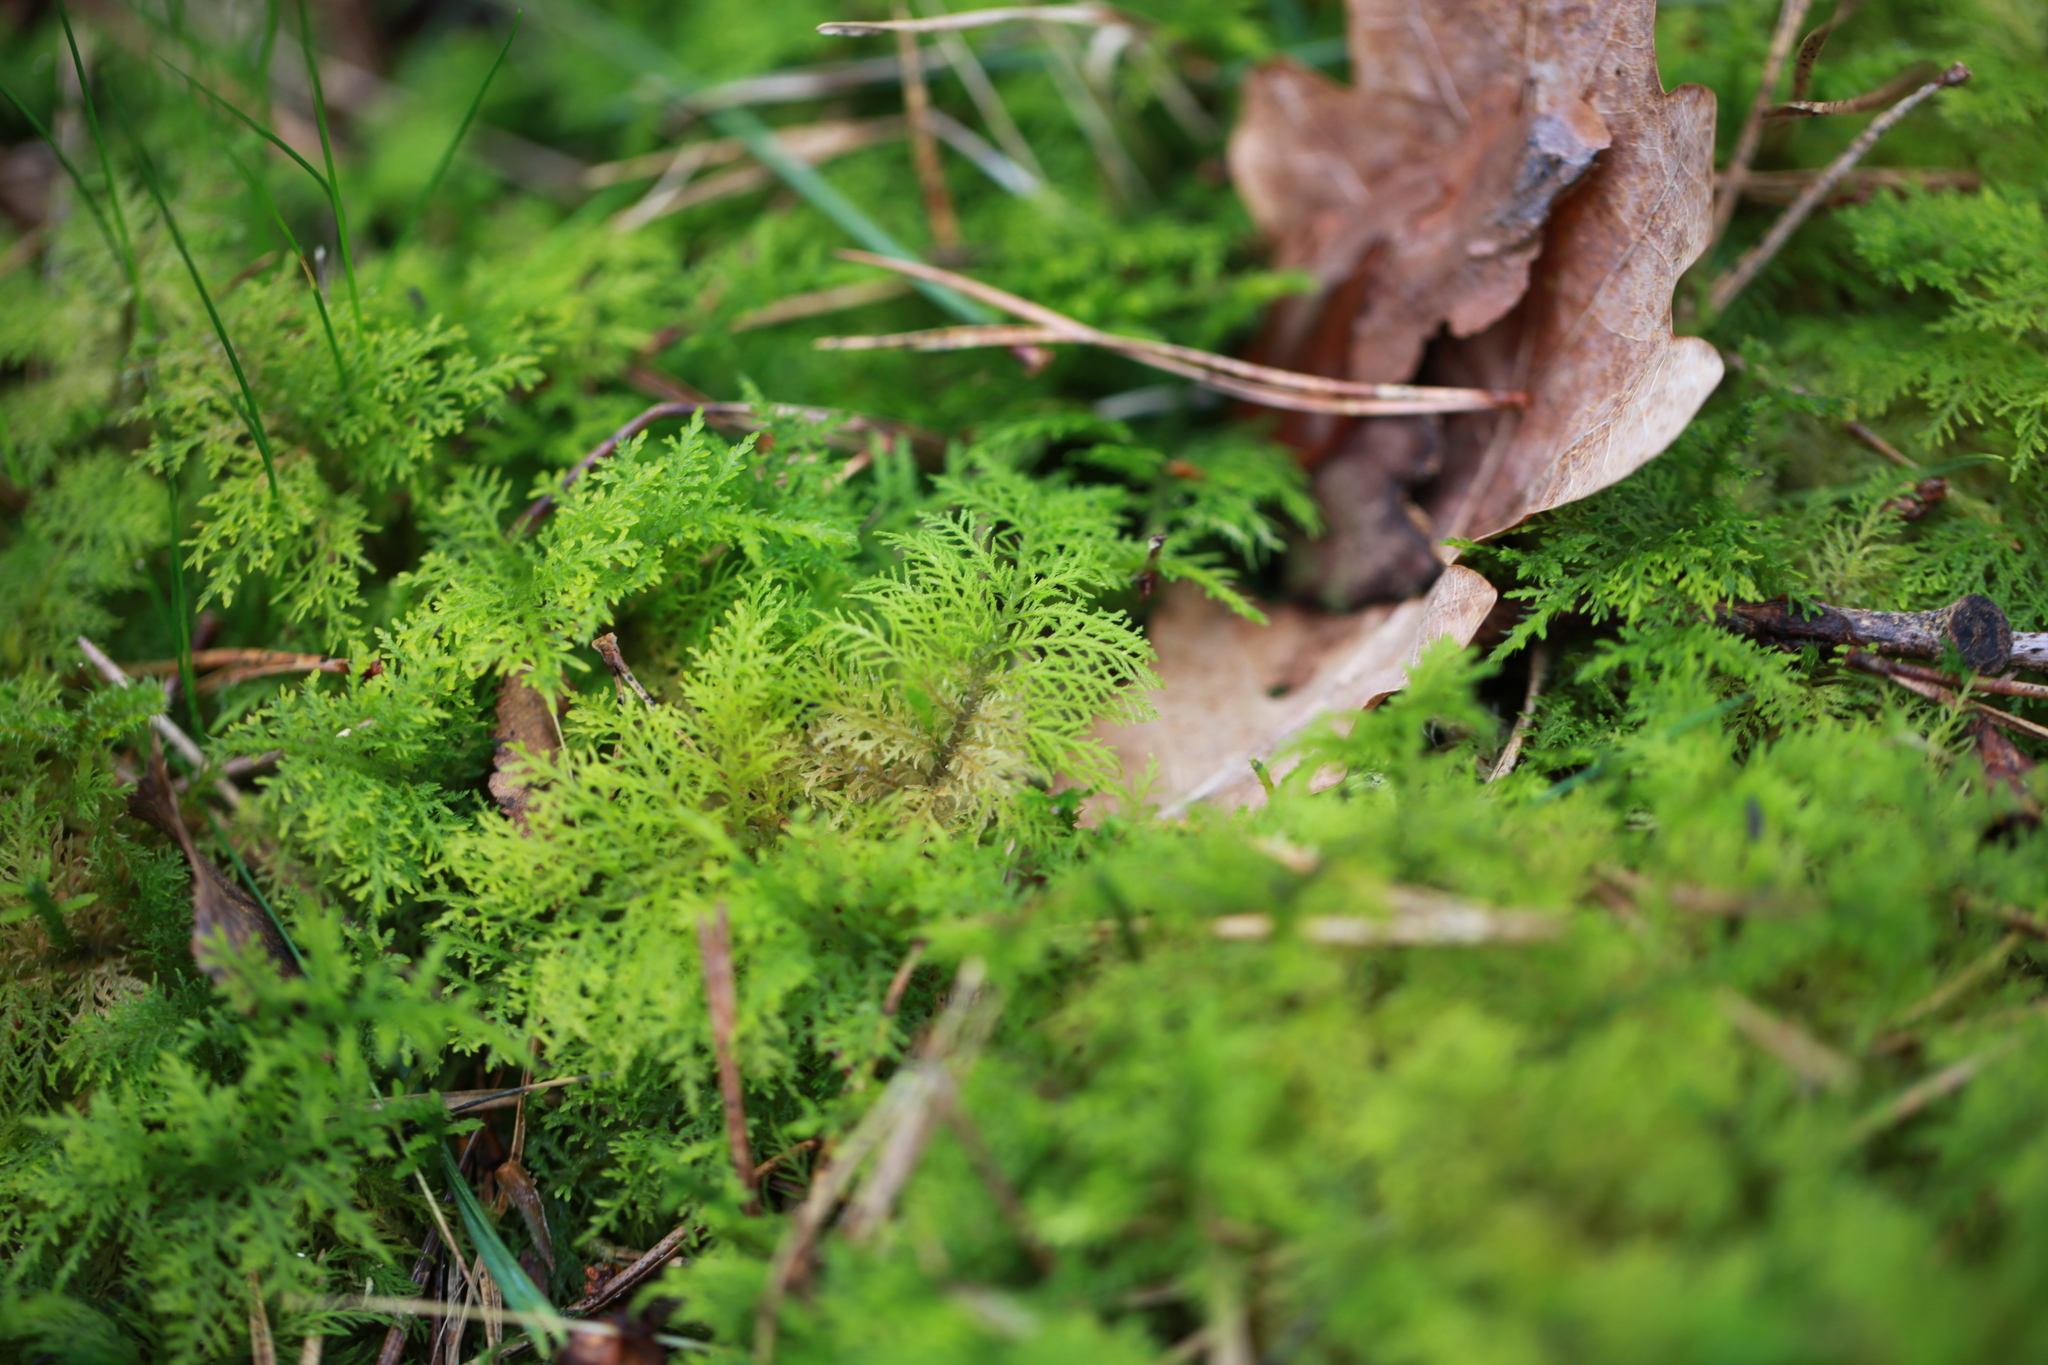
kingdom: Plantae
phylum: Bryophyta
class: Bryopsida
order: Hypnales
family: Thuidiaceae
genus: Thuidium
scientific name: Thuidium tamariscinum
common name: Common tamarisk-moss
